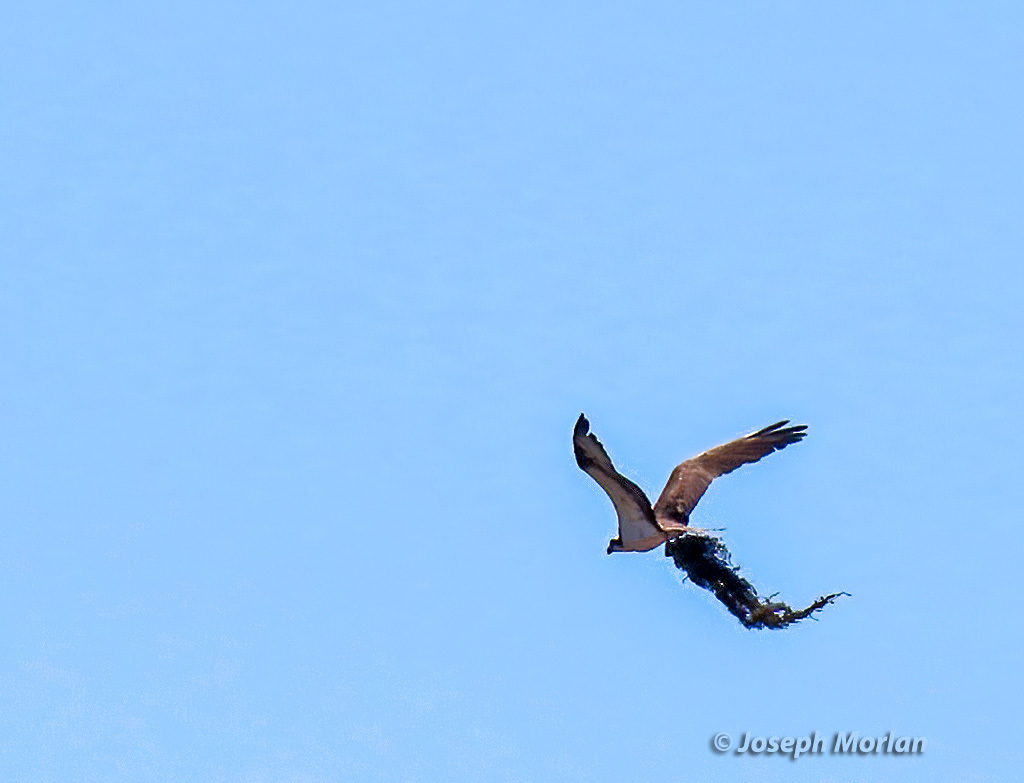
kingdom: Animalia
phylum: Chordata
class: Aves
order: Accipitriformes
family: Pandionidae
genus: Pandion
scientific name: Pandion haliaetus
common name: Osprey
